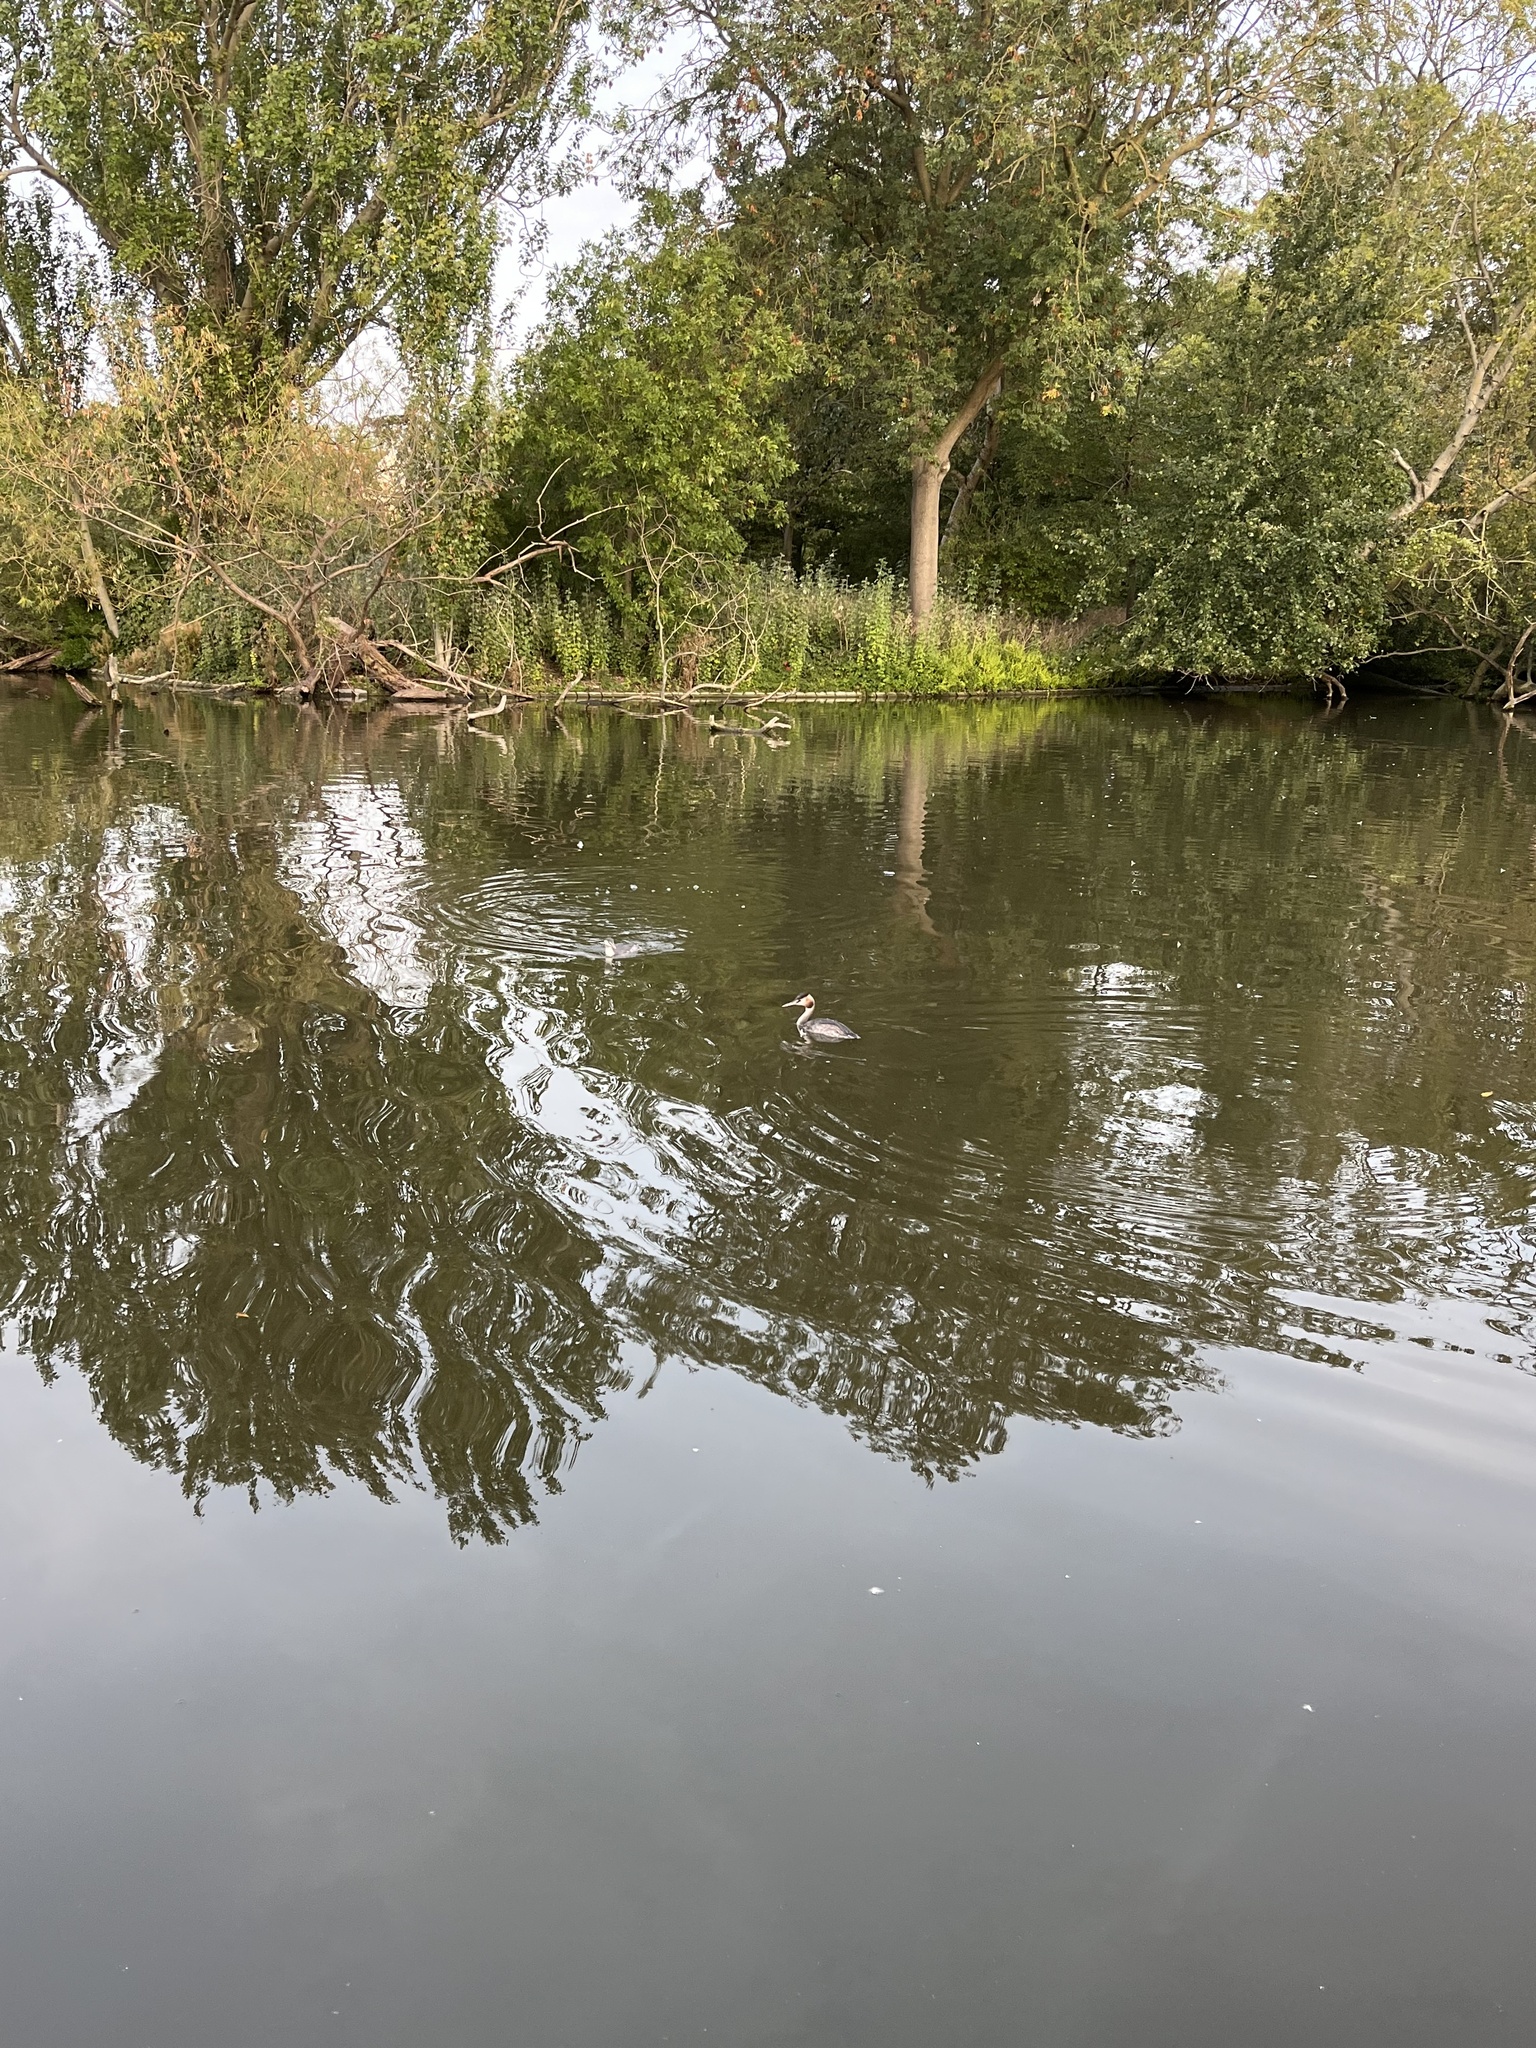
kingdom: Animalia
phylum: Chordata
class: Aves
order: Podicipediformes
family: Podicipedidae
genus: Podiceps
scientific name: Podiceps cristatus
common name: Great crested grebe
